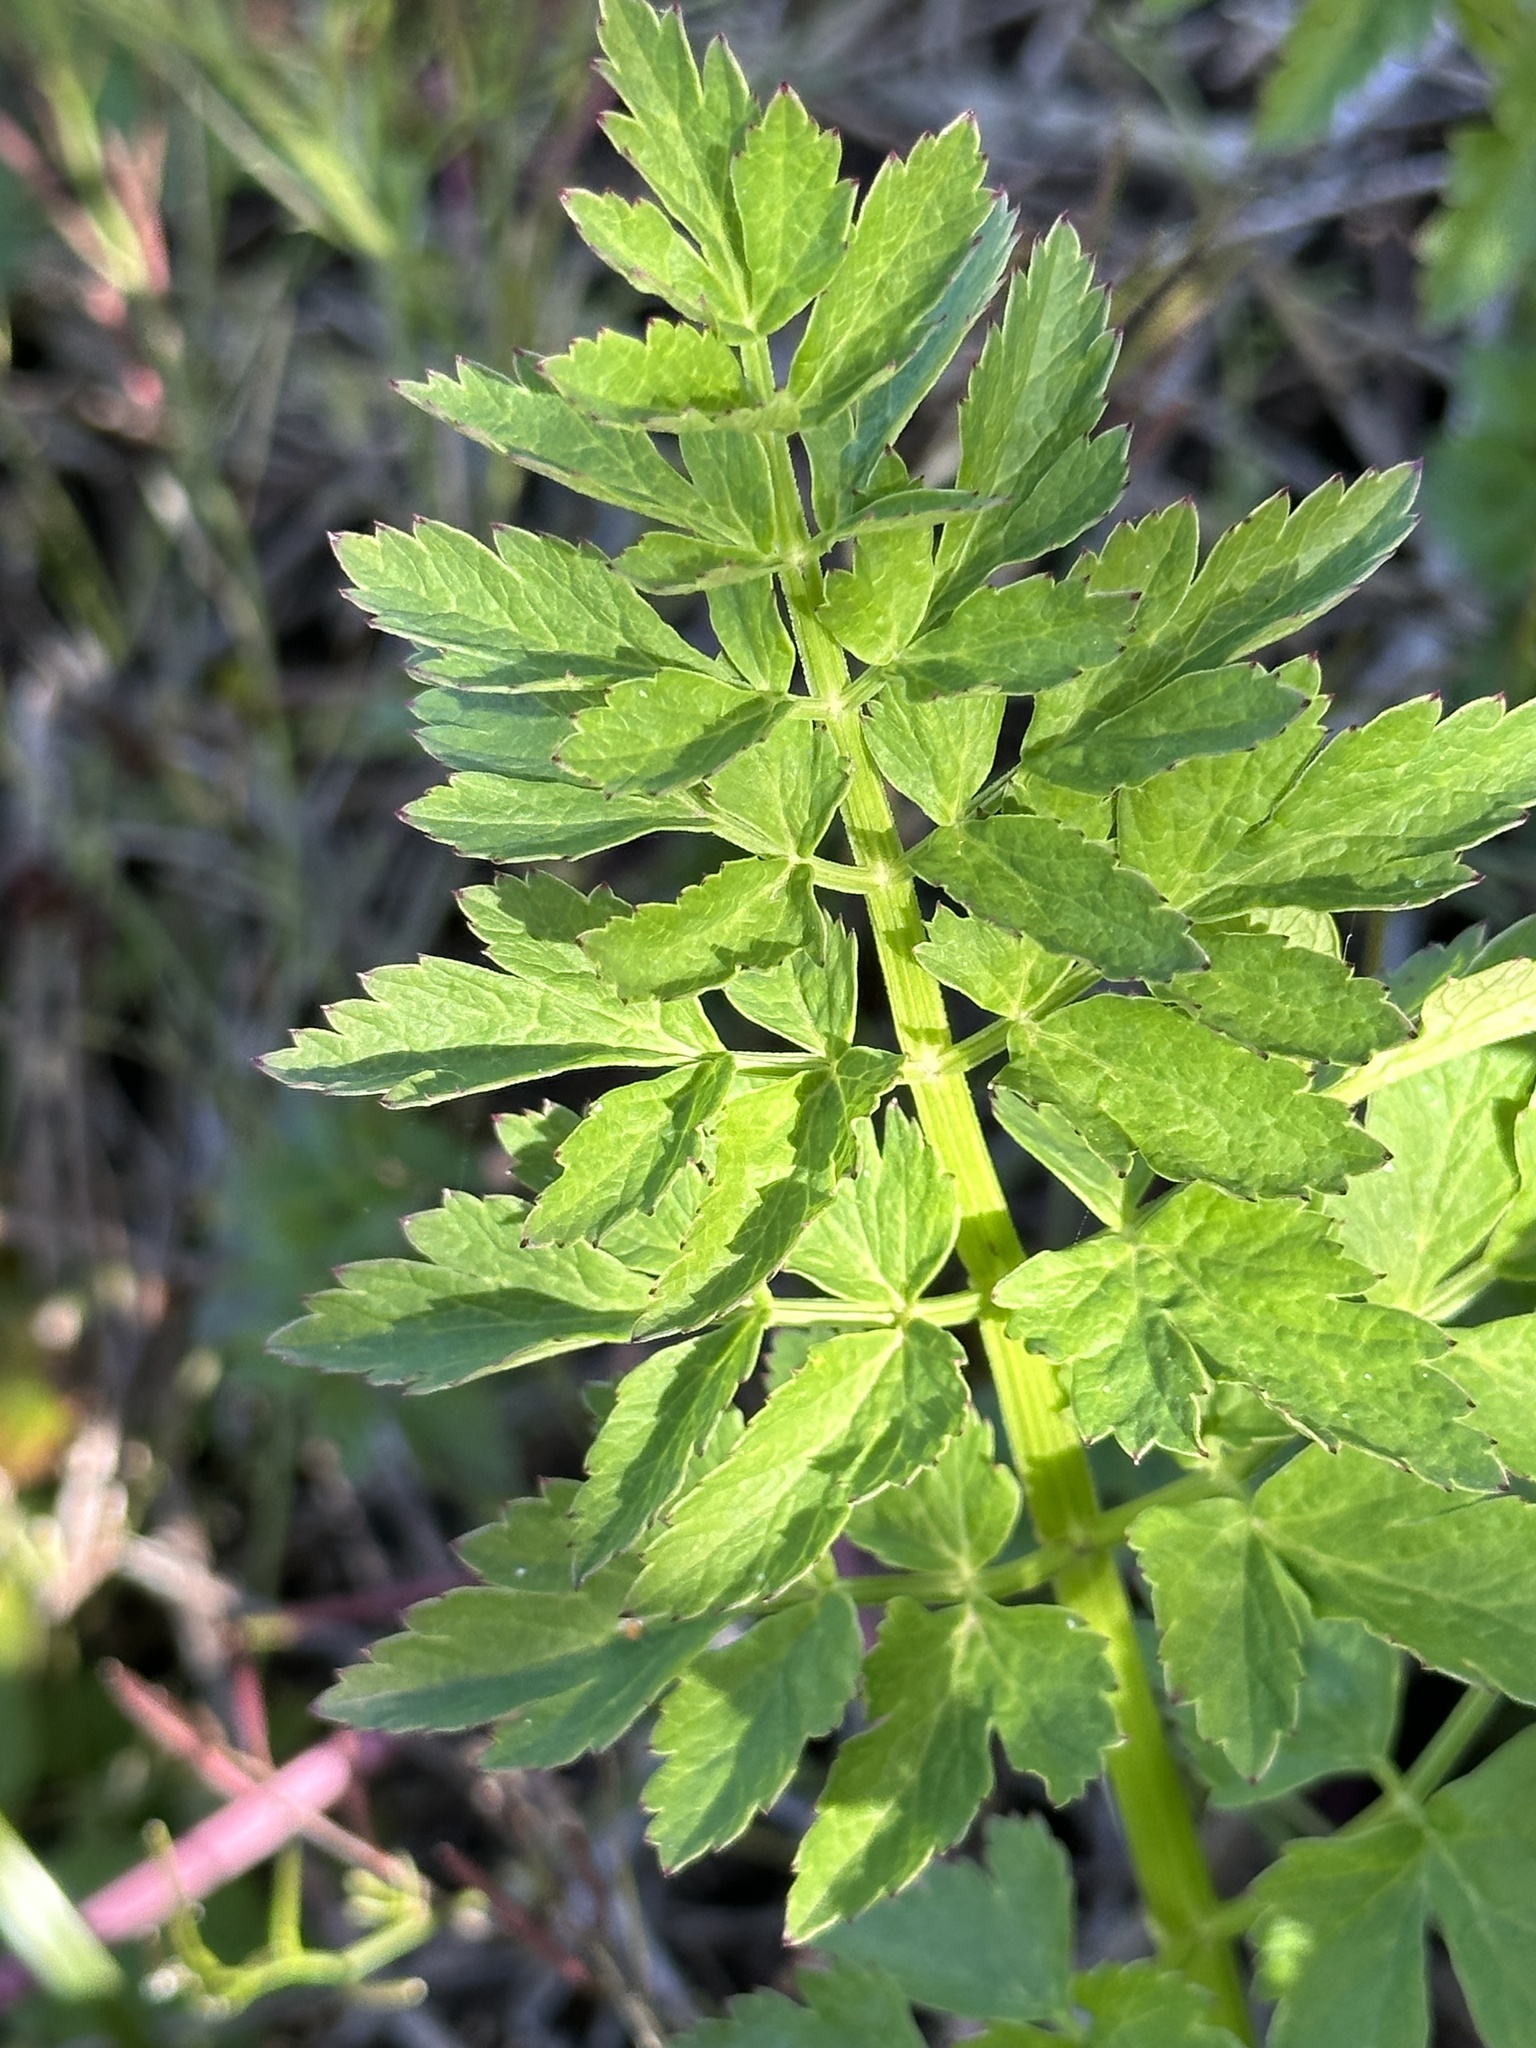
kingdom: Plantae
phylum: Tracheophyta
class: Magnoliopsida
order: Apiales
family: Apiaceae
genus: Oenanthe
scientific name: Oenanthe sarmentosa
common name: American water-parsley
